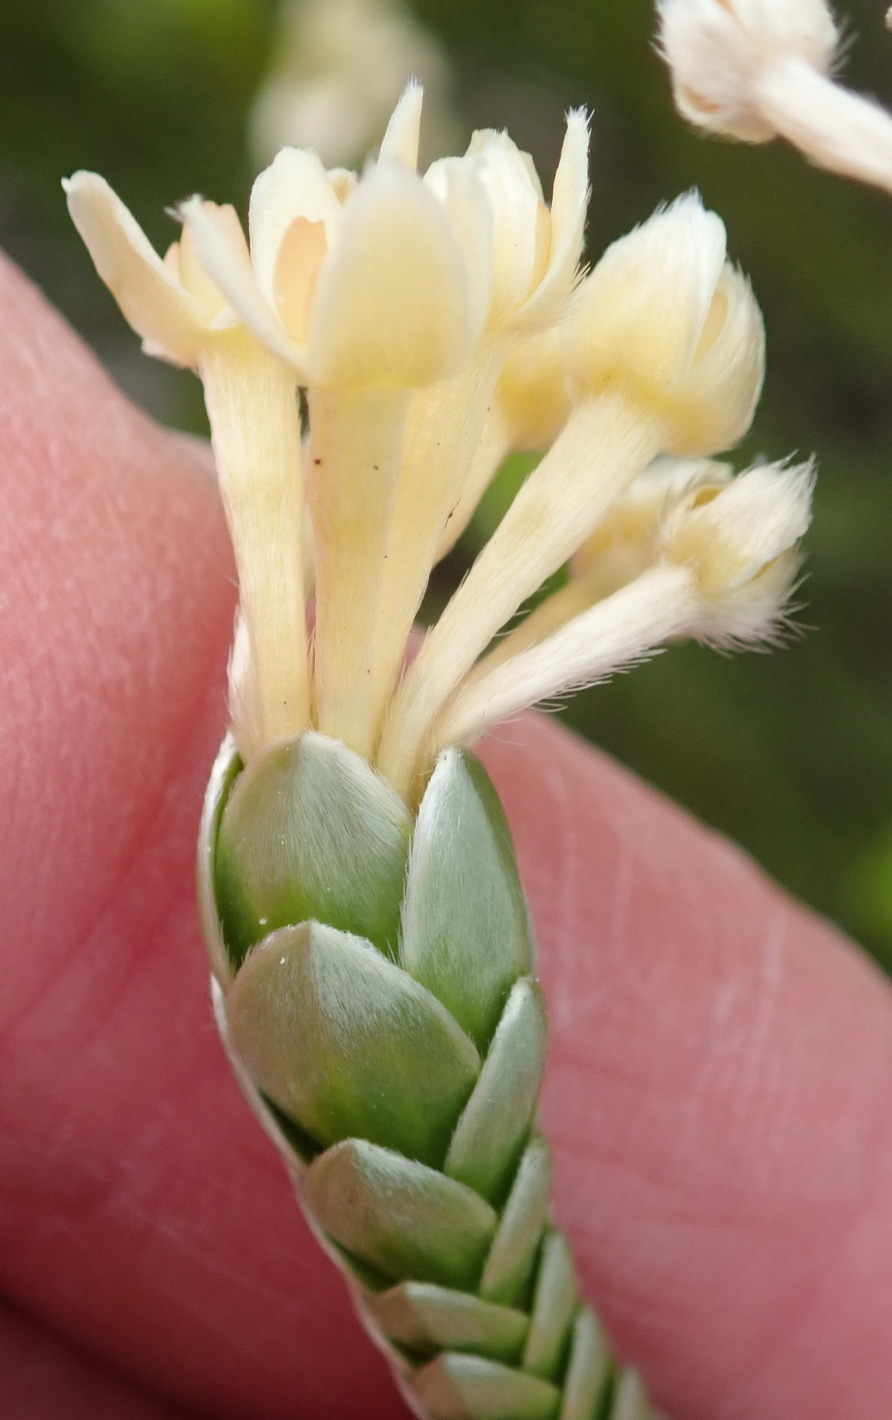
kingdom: Plantae
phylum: Tracheophyta
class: Magnoliopsida
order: Malvales
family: Thymelaeaceae
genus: Gnidia
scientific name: Gnidia chrysophylla
